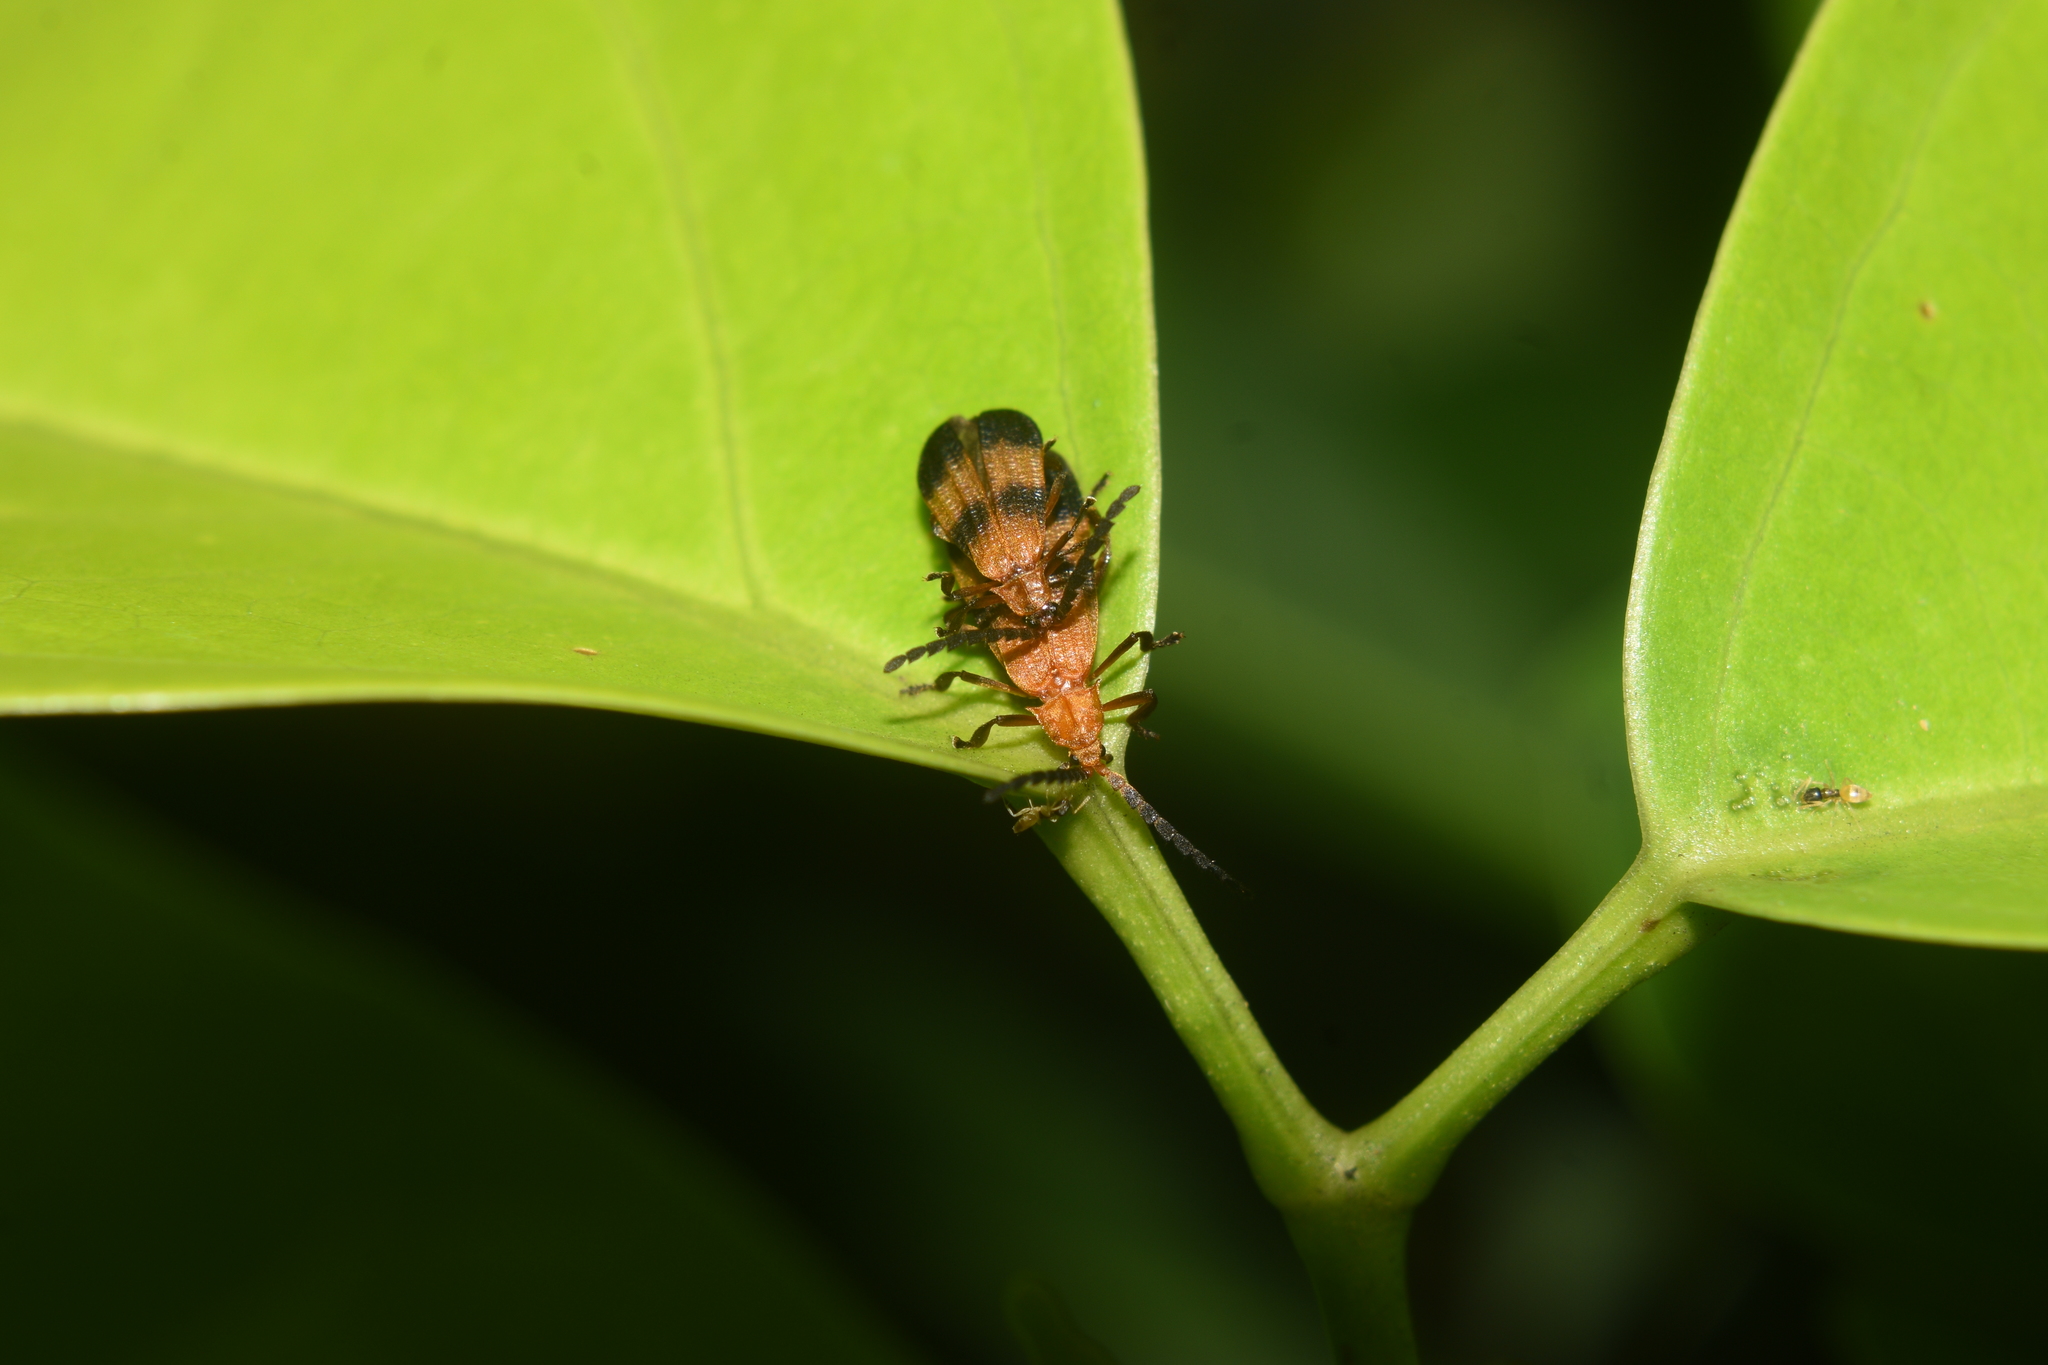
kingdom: Animalia
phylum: Arthropoda
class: Insecta
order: Hymenoptera
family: Formicidae
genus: Tapinoma
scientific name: Tapinoma melanocephalum
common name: Ghost ant
